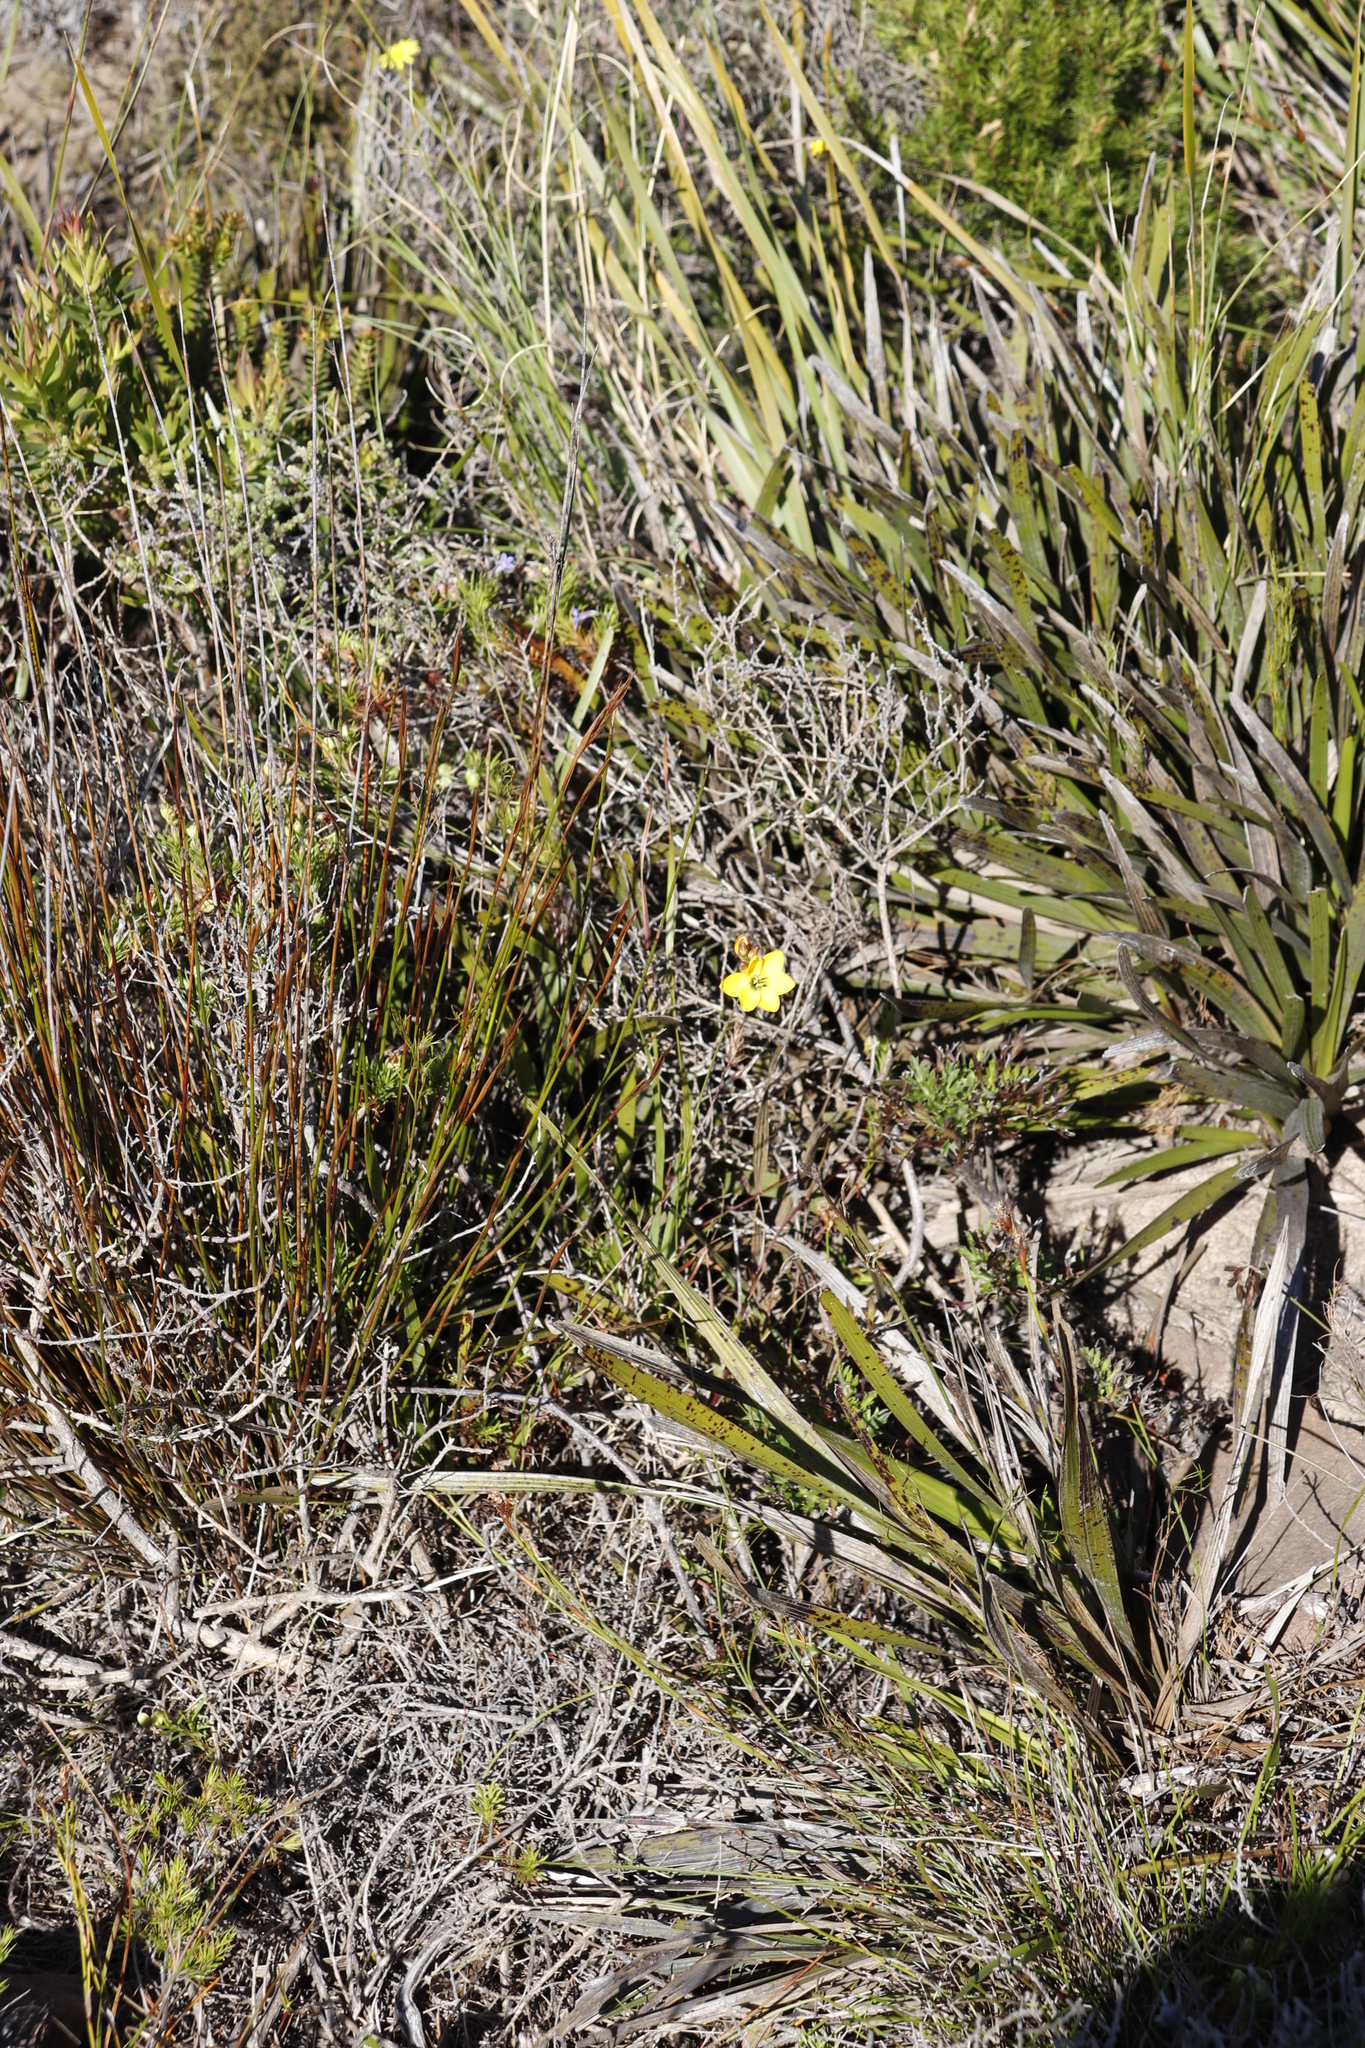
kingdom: Plantae
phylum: Tracheophyta
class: Liliopsida
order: Asparagales
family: Iridaceae
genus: Ixia
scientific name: Ixia dubia
